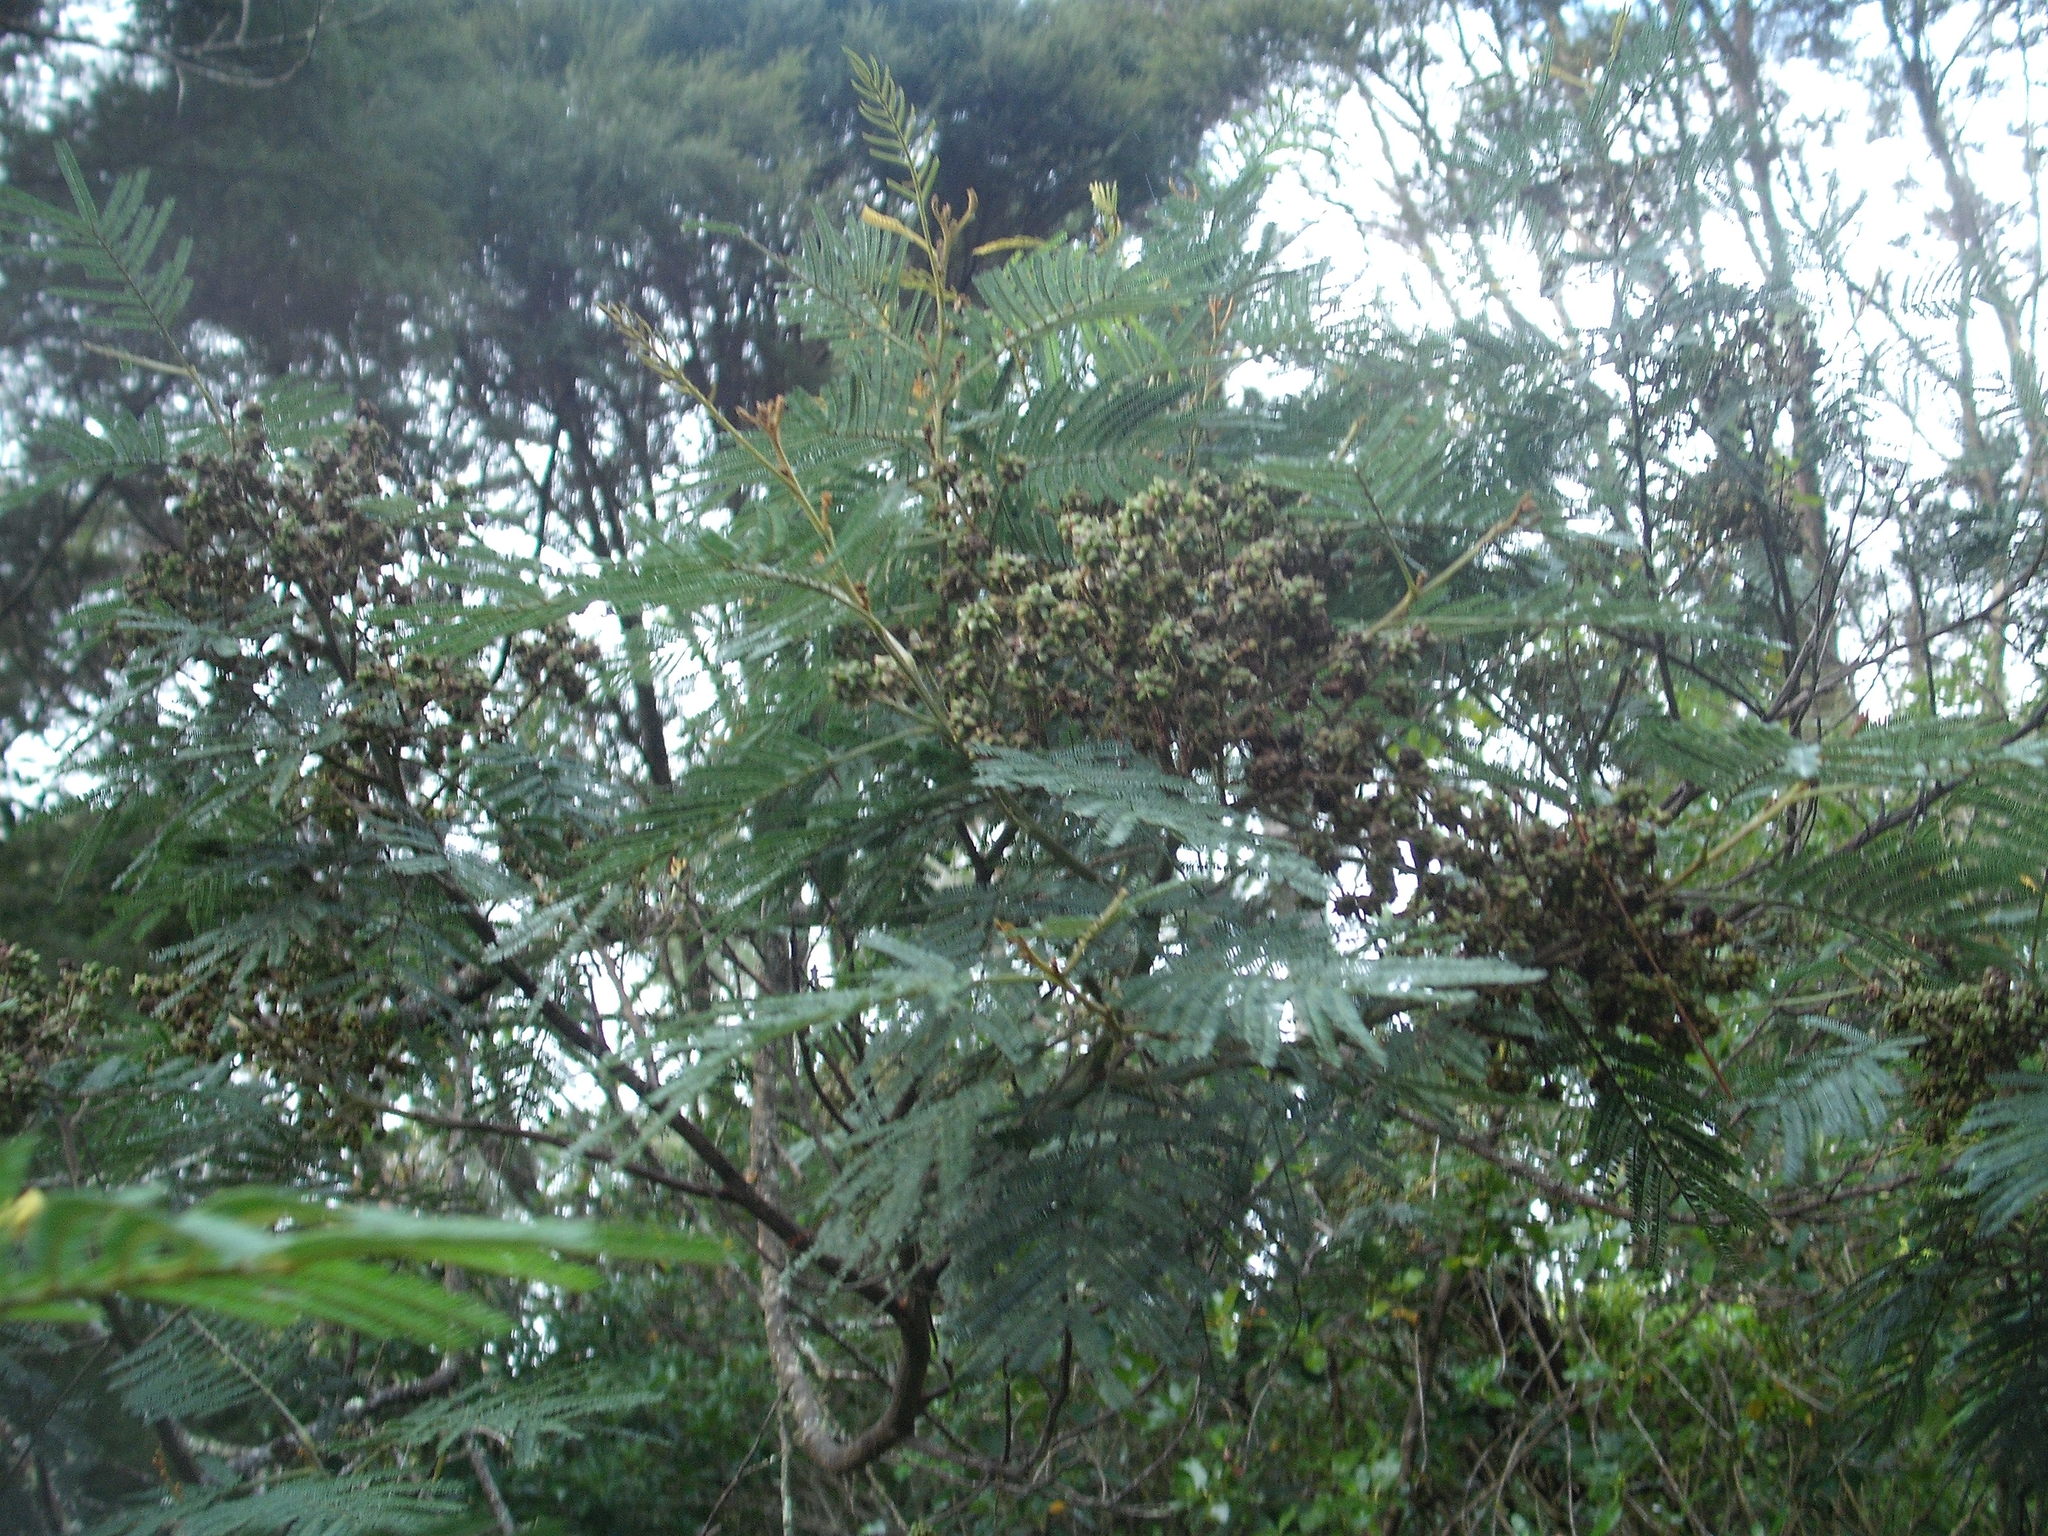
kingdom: Animalia
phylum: Arthropoda
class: Insecta
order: Diptera
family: Cecidomyiidae
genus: Dasineura
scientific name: Dasineura rubiformis
